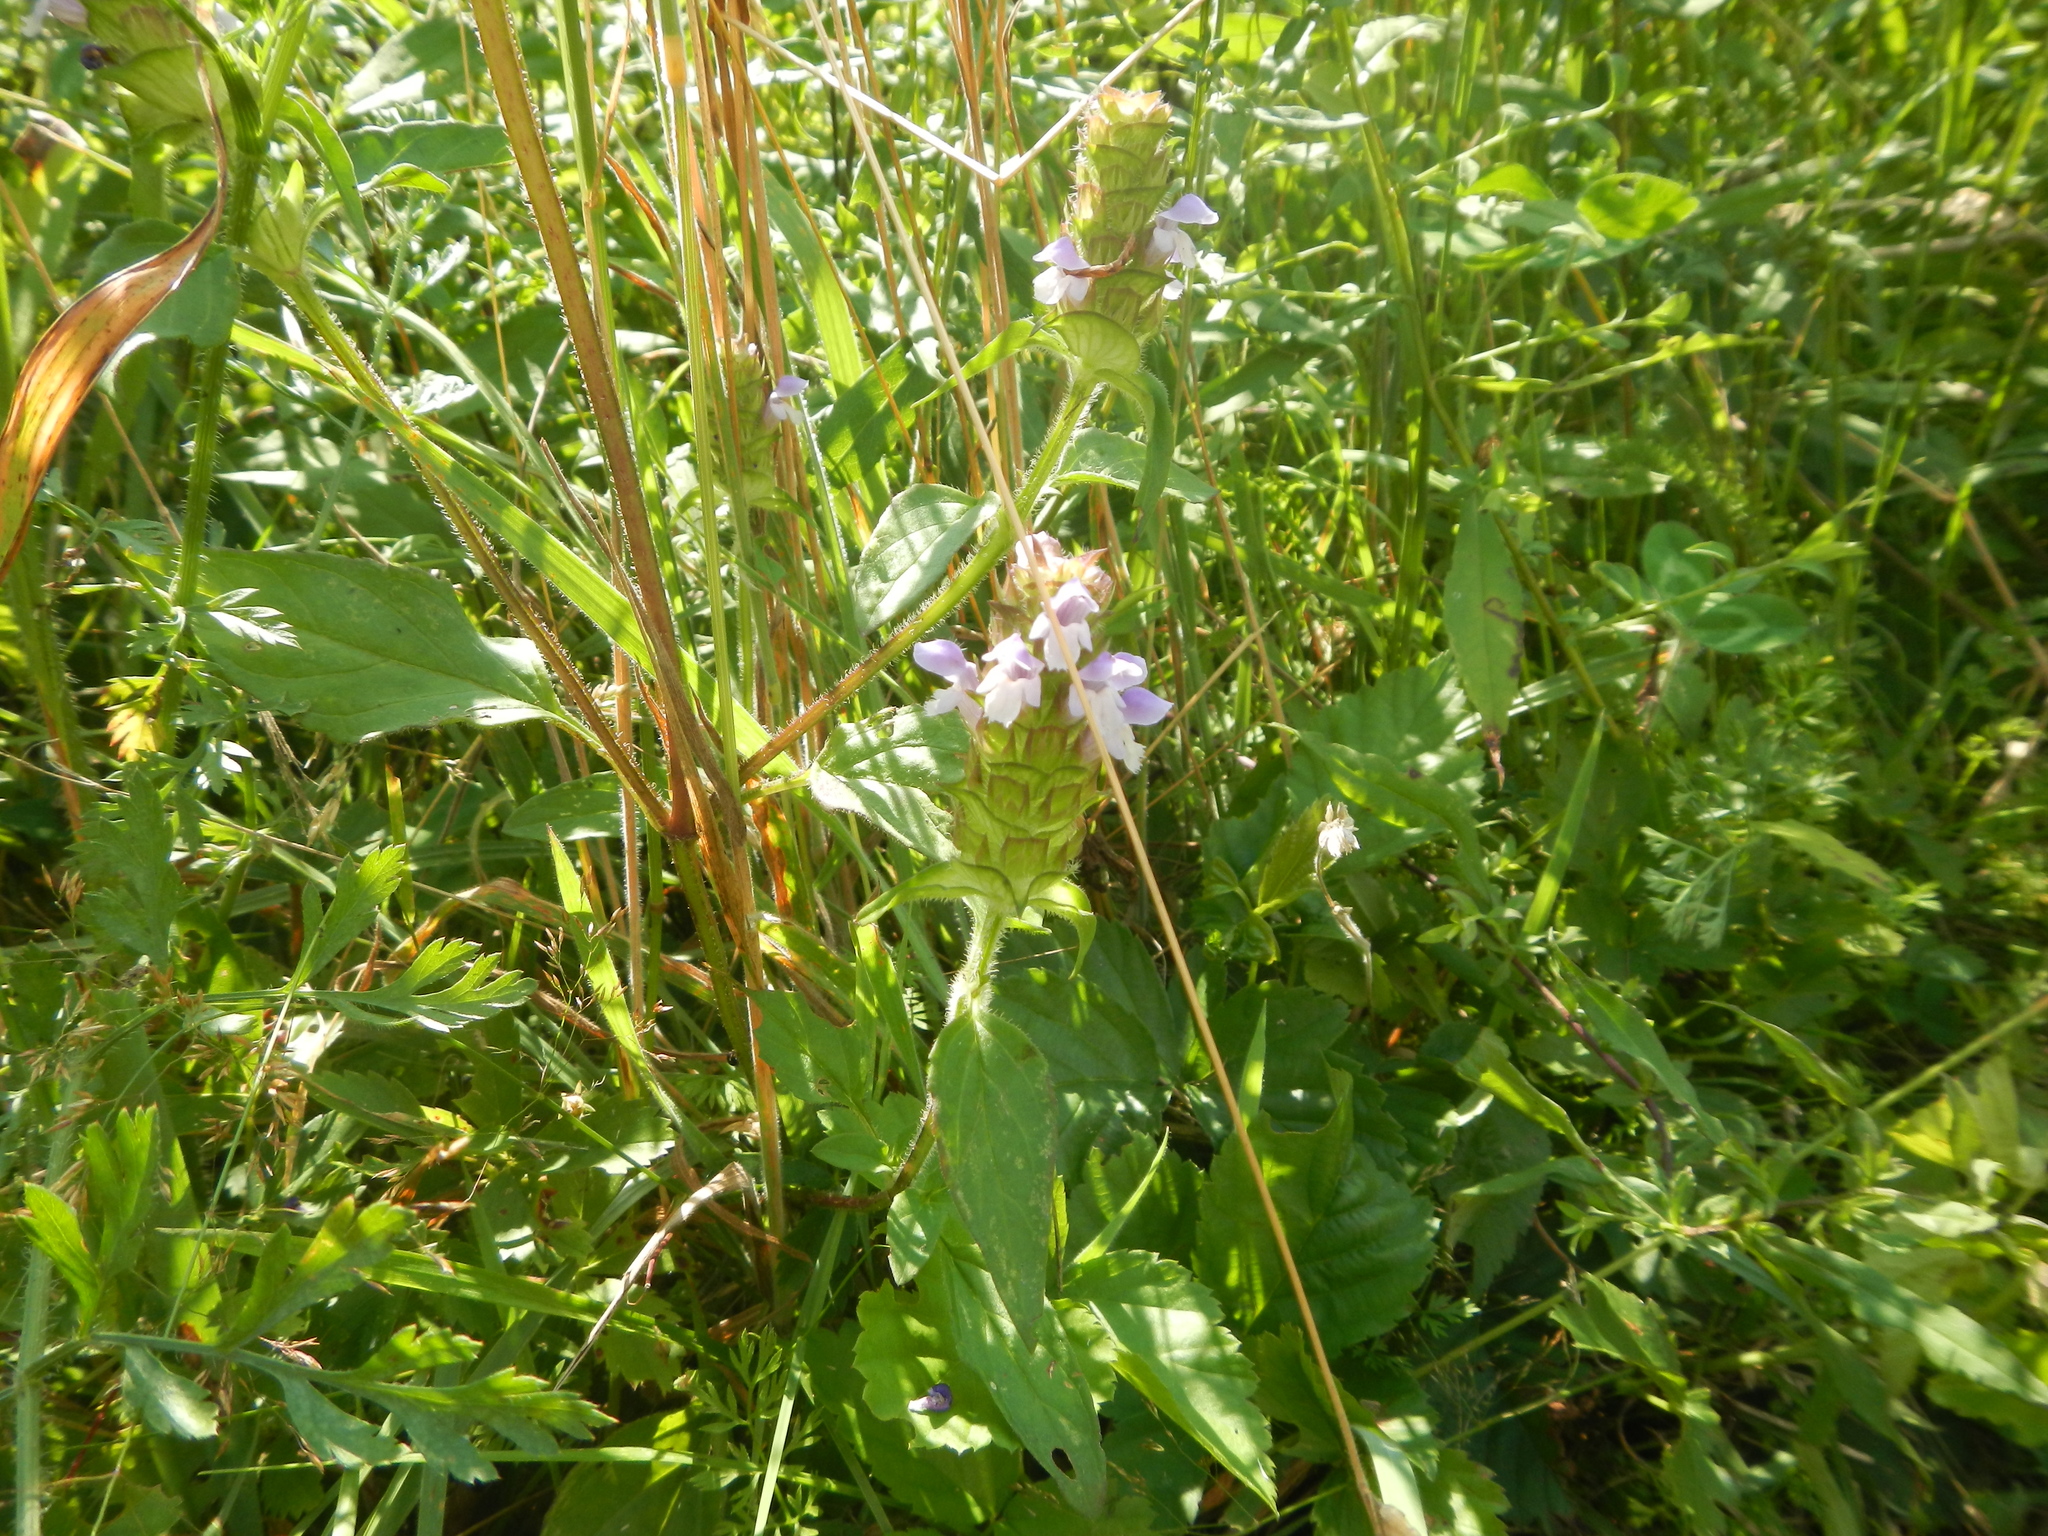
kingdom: Plantae
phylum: Tracheophyta
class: Magnoliopsida
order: Lamiales
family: Lamiaceae
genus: Prunella
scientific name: Prunella vulgaris
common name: Heal-all
